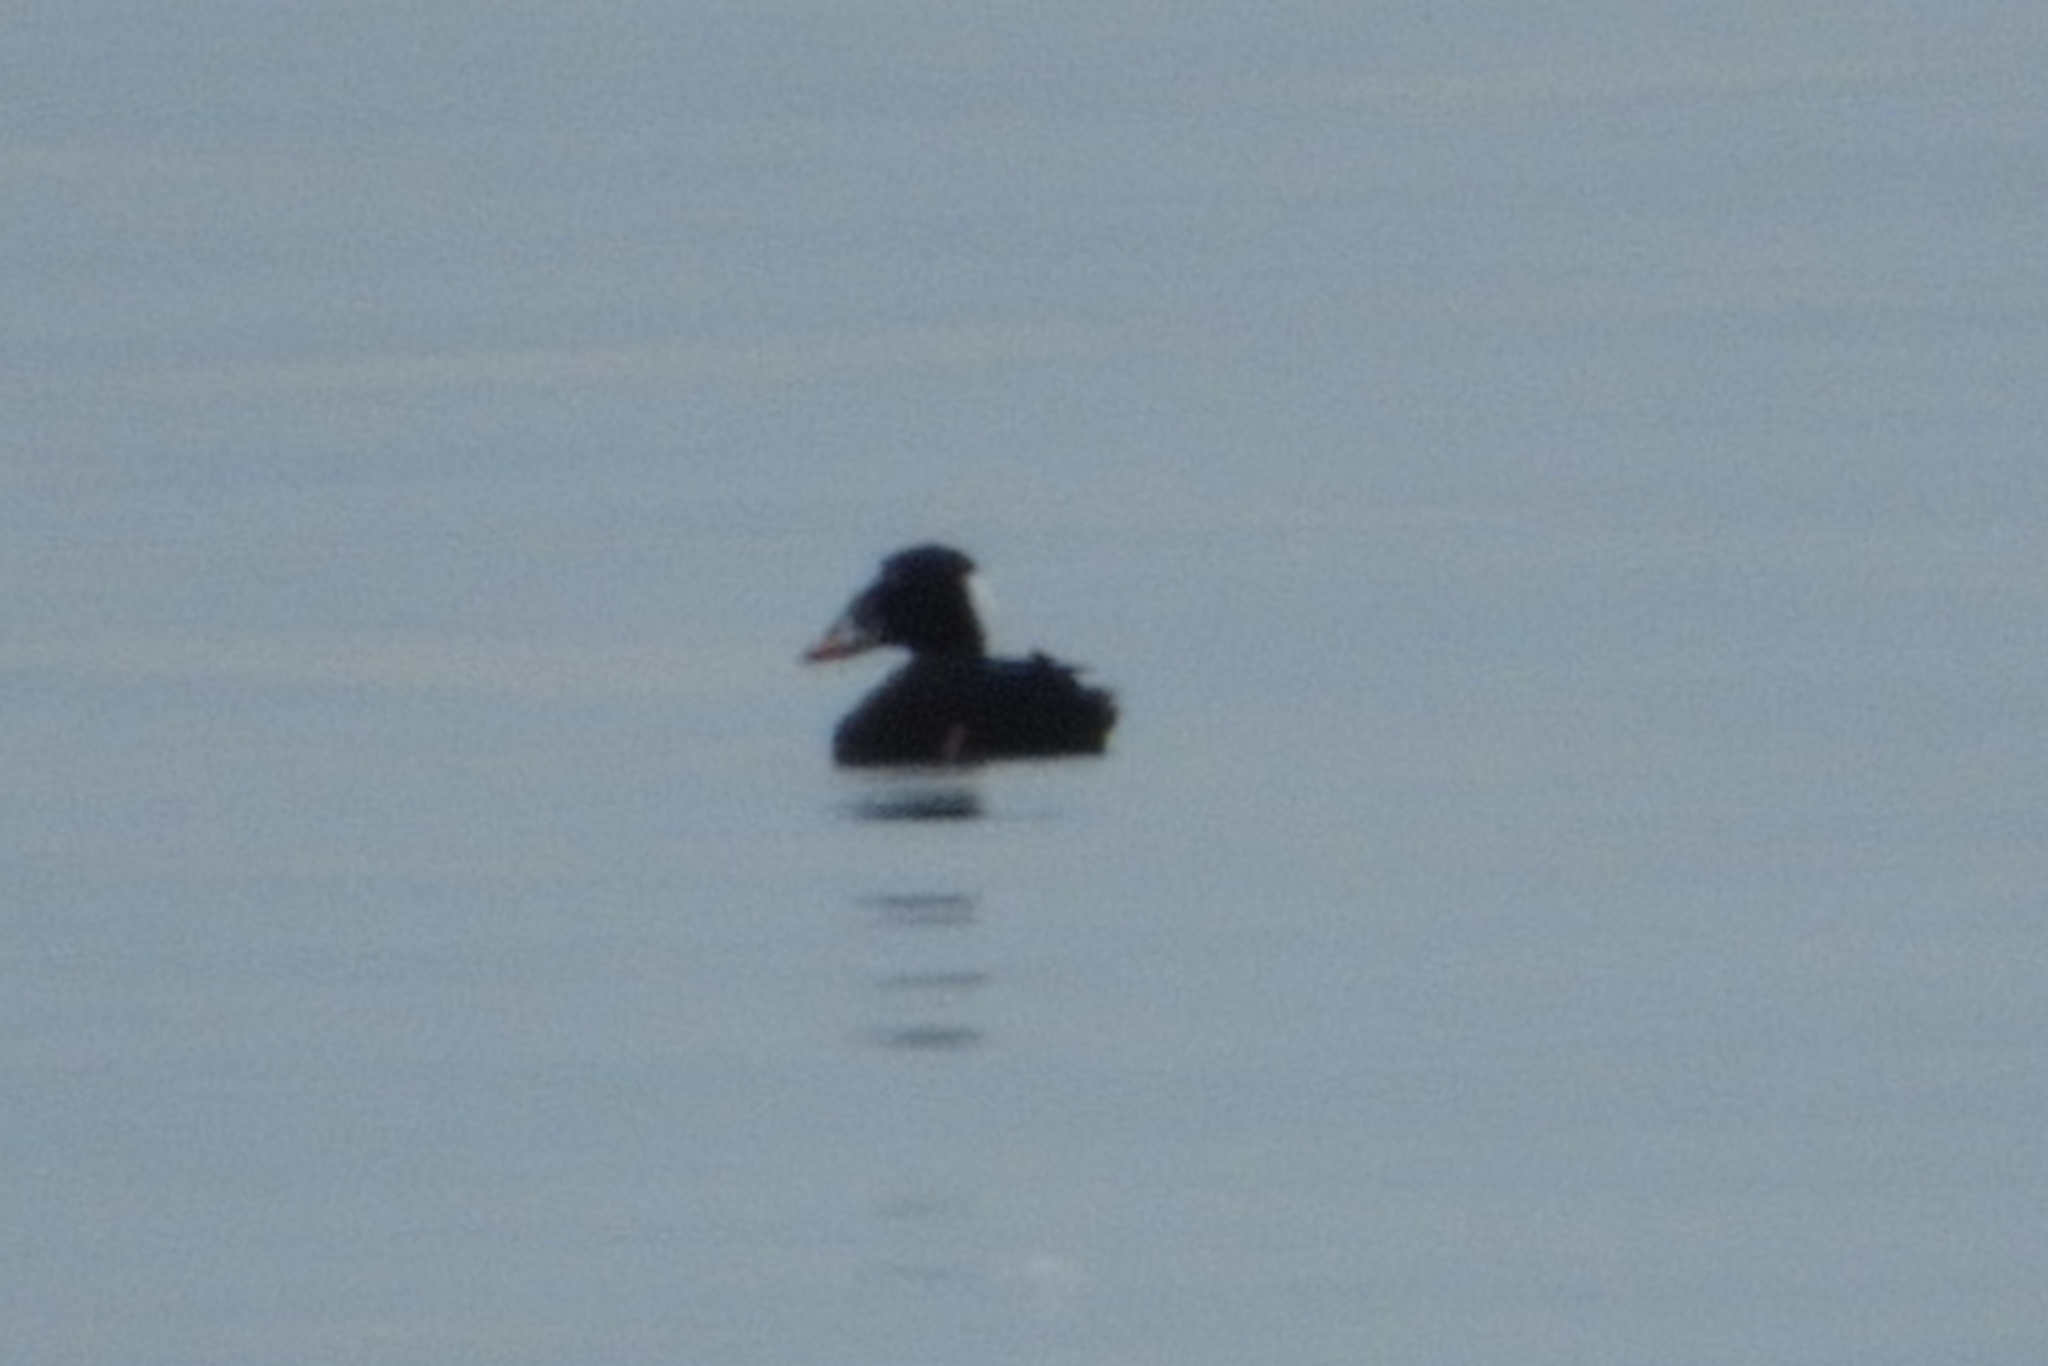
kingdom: Animalia
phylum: Chordata
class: Aves
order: Anseriformes
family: Anatidae
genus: Melanitta
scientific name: Melanitta perspicillata
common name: Surf scoter
